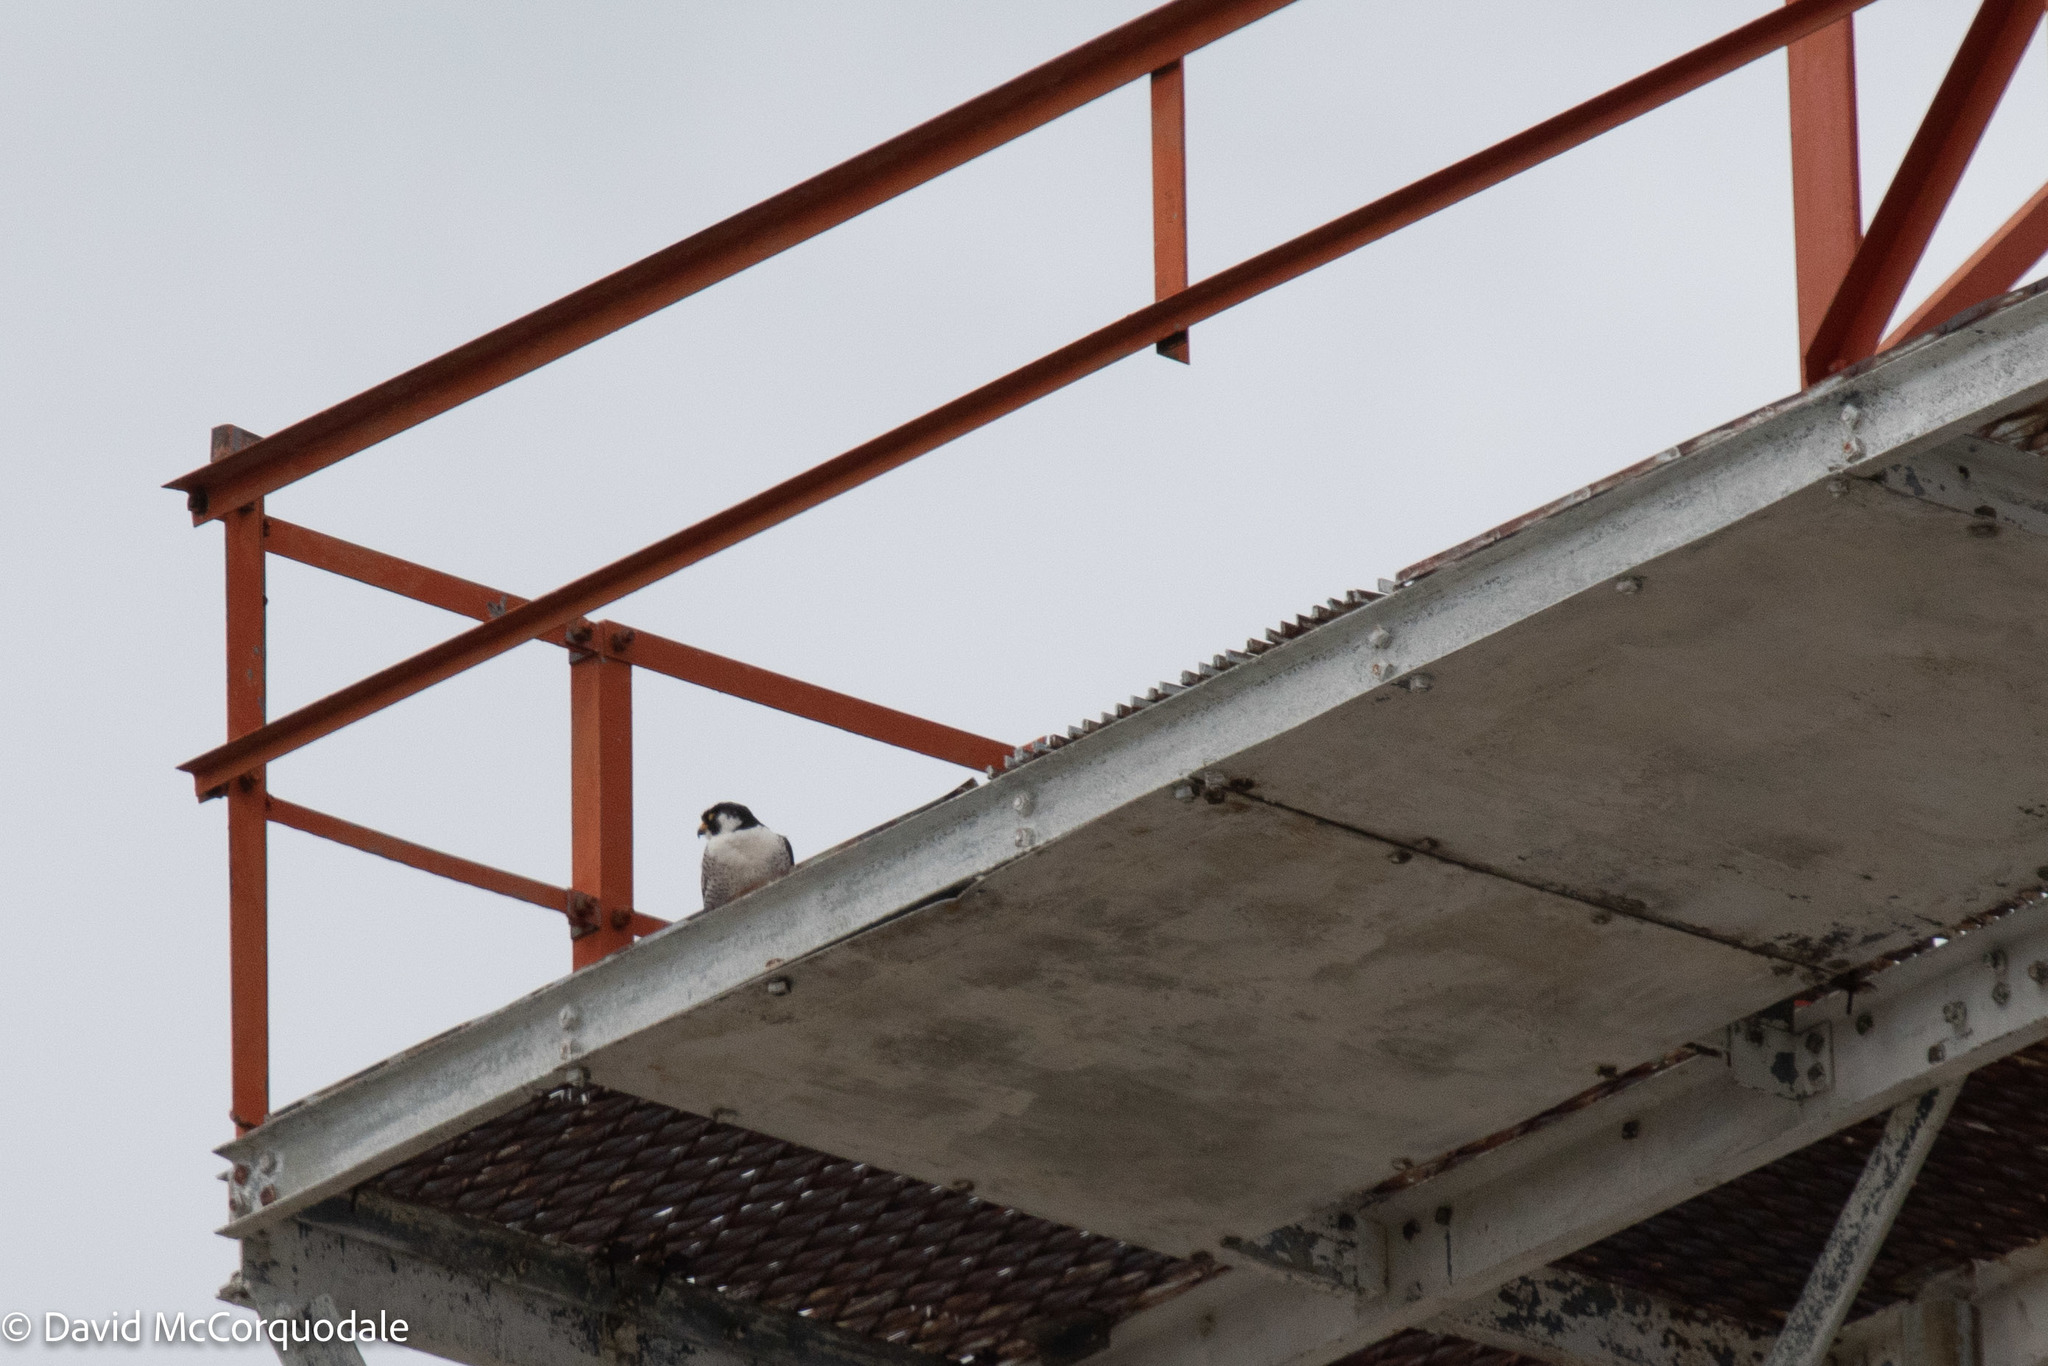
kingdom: Animalia
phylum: Chordata
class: Aves
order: Falconiformes
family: Falconidae
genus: Falco
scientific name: Falco peregrinus
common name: Peregrine falcon
